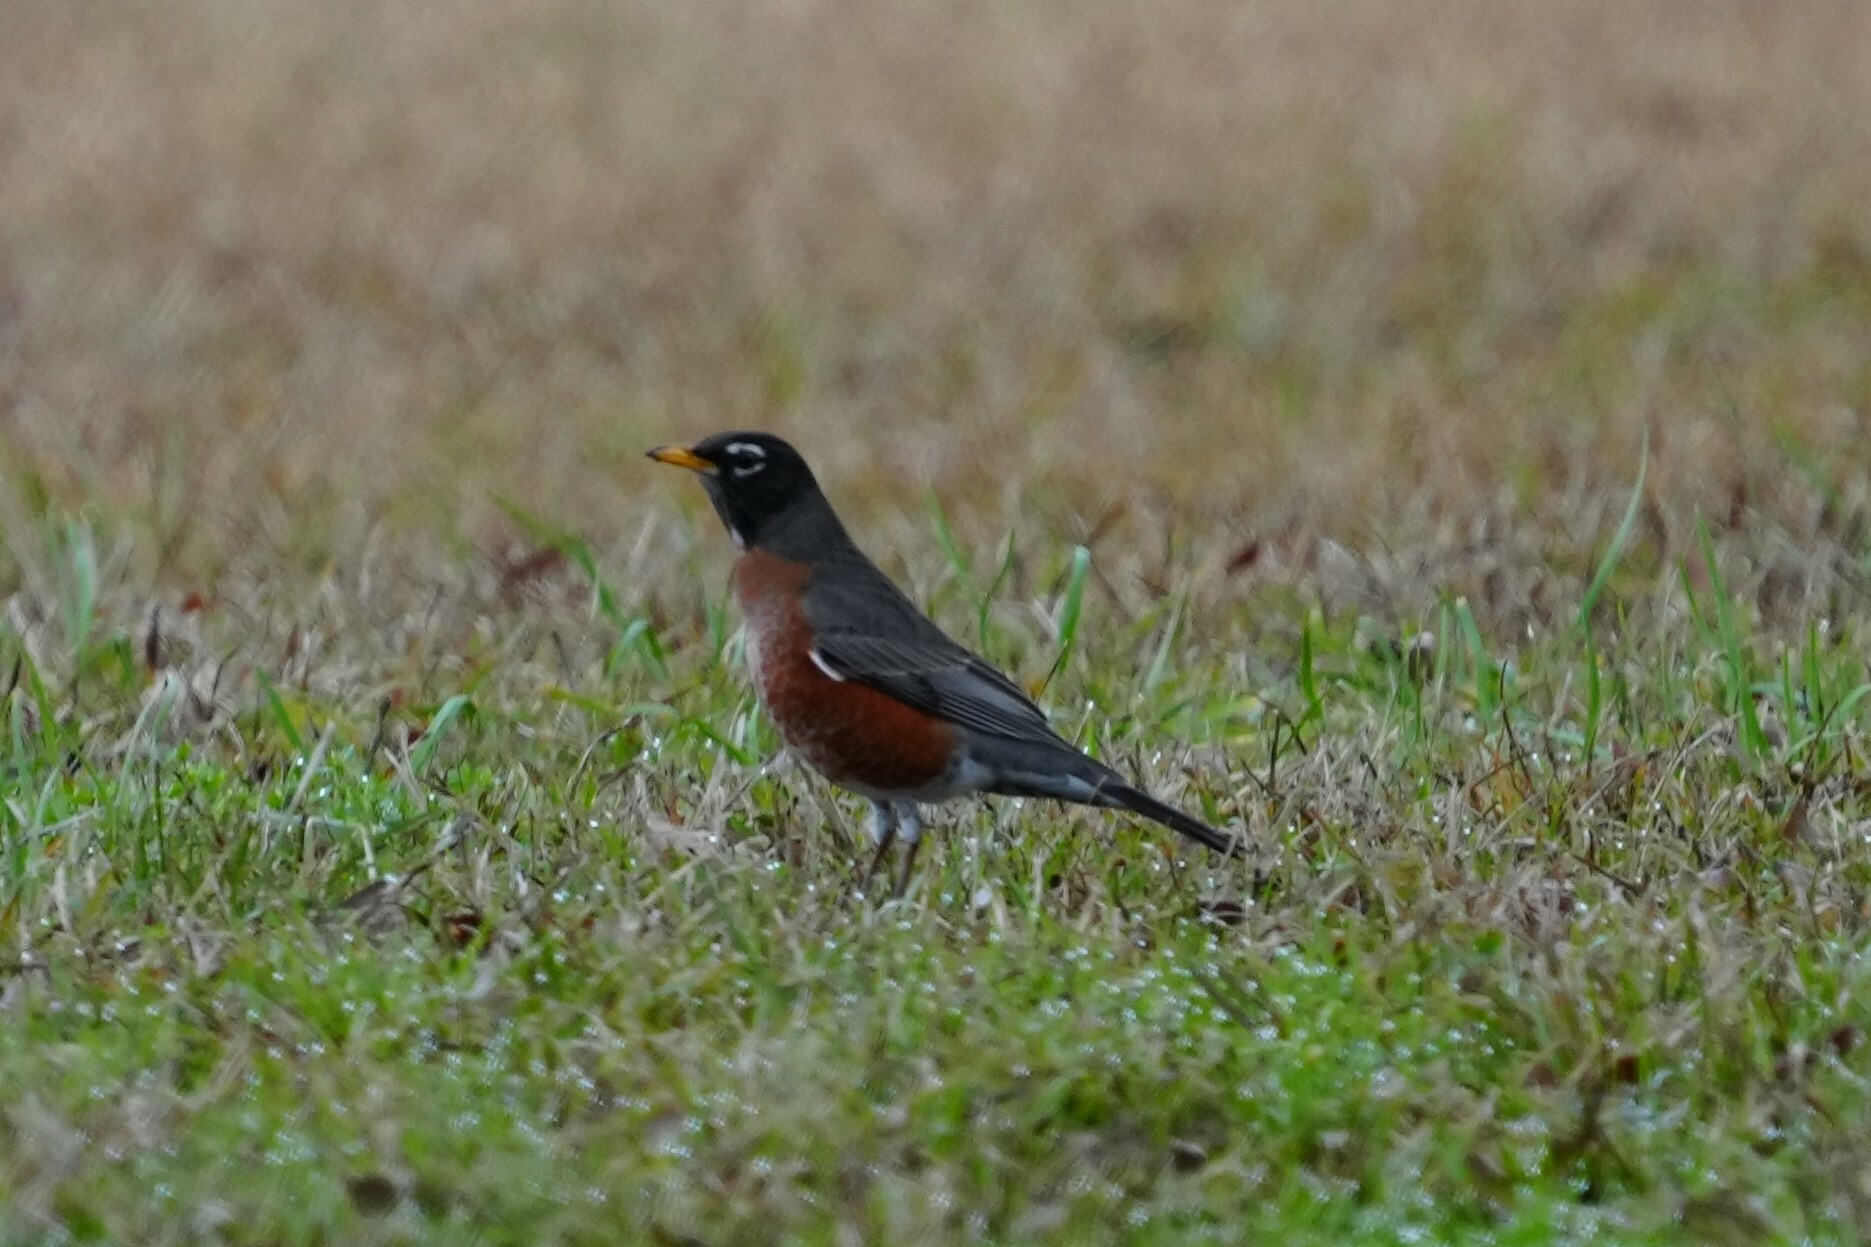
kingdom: Animalia
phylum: Chordata
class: Aves
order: Passeriformes
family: Turdidae
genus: Turdus
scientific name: Turdus migratorius
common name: American robin
